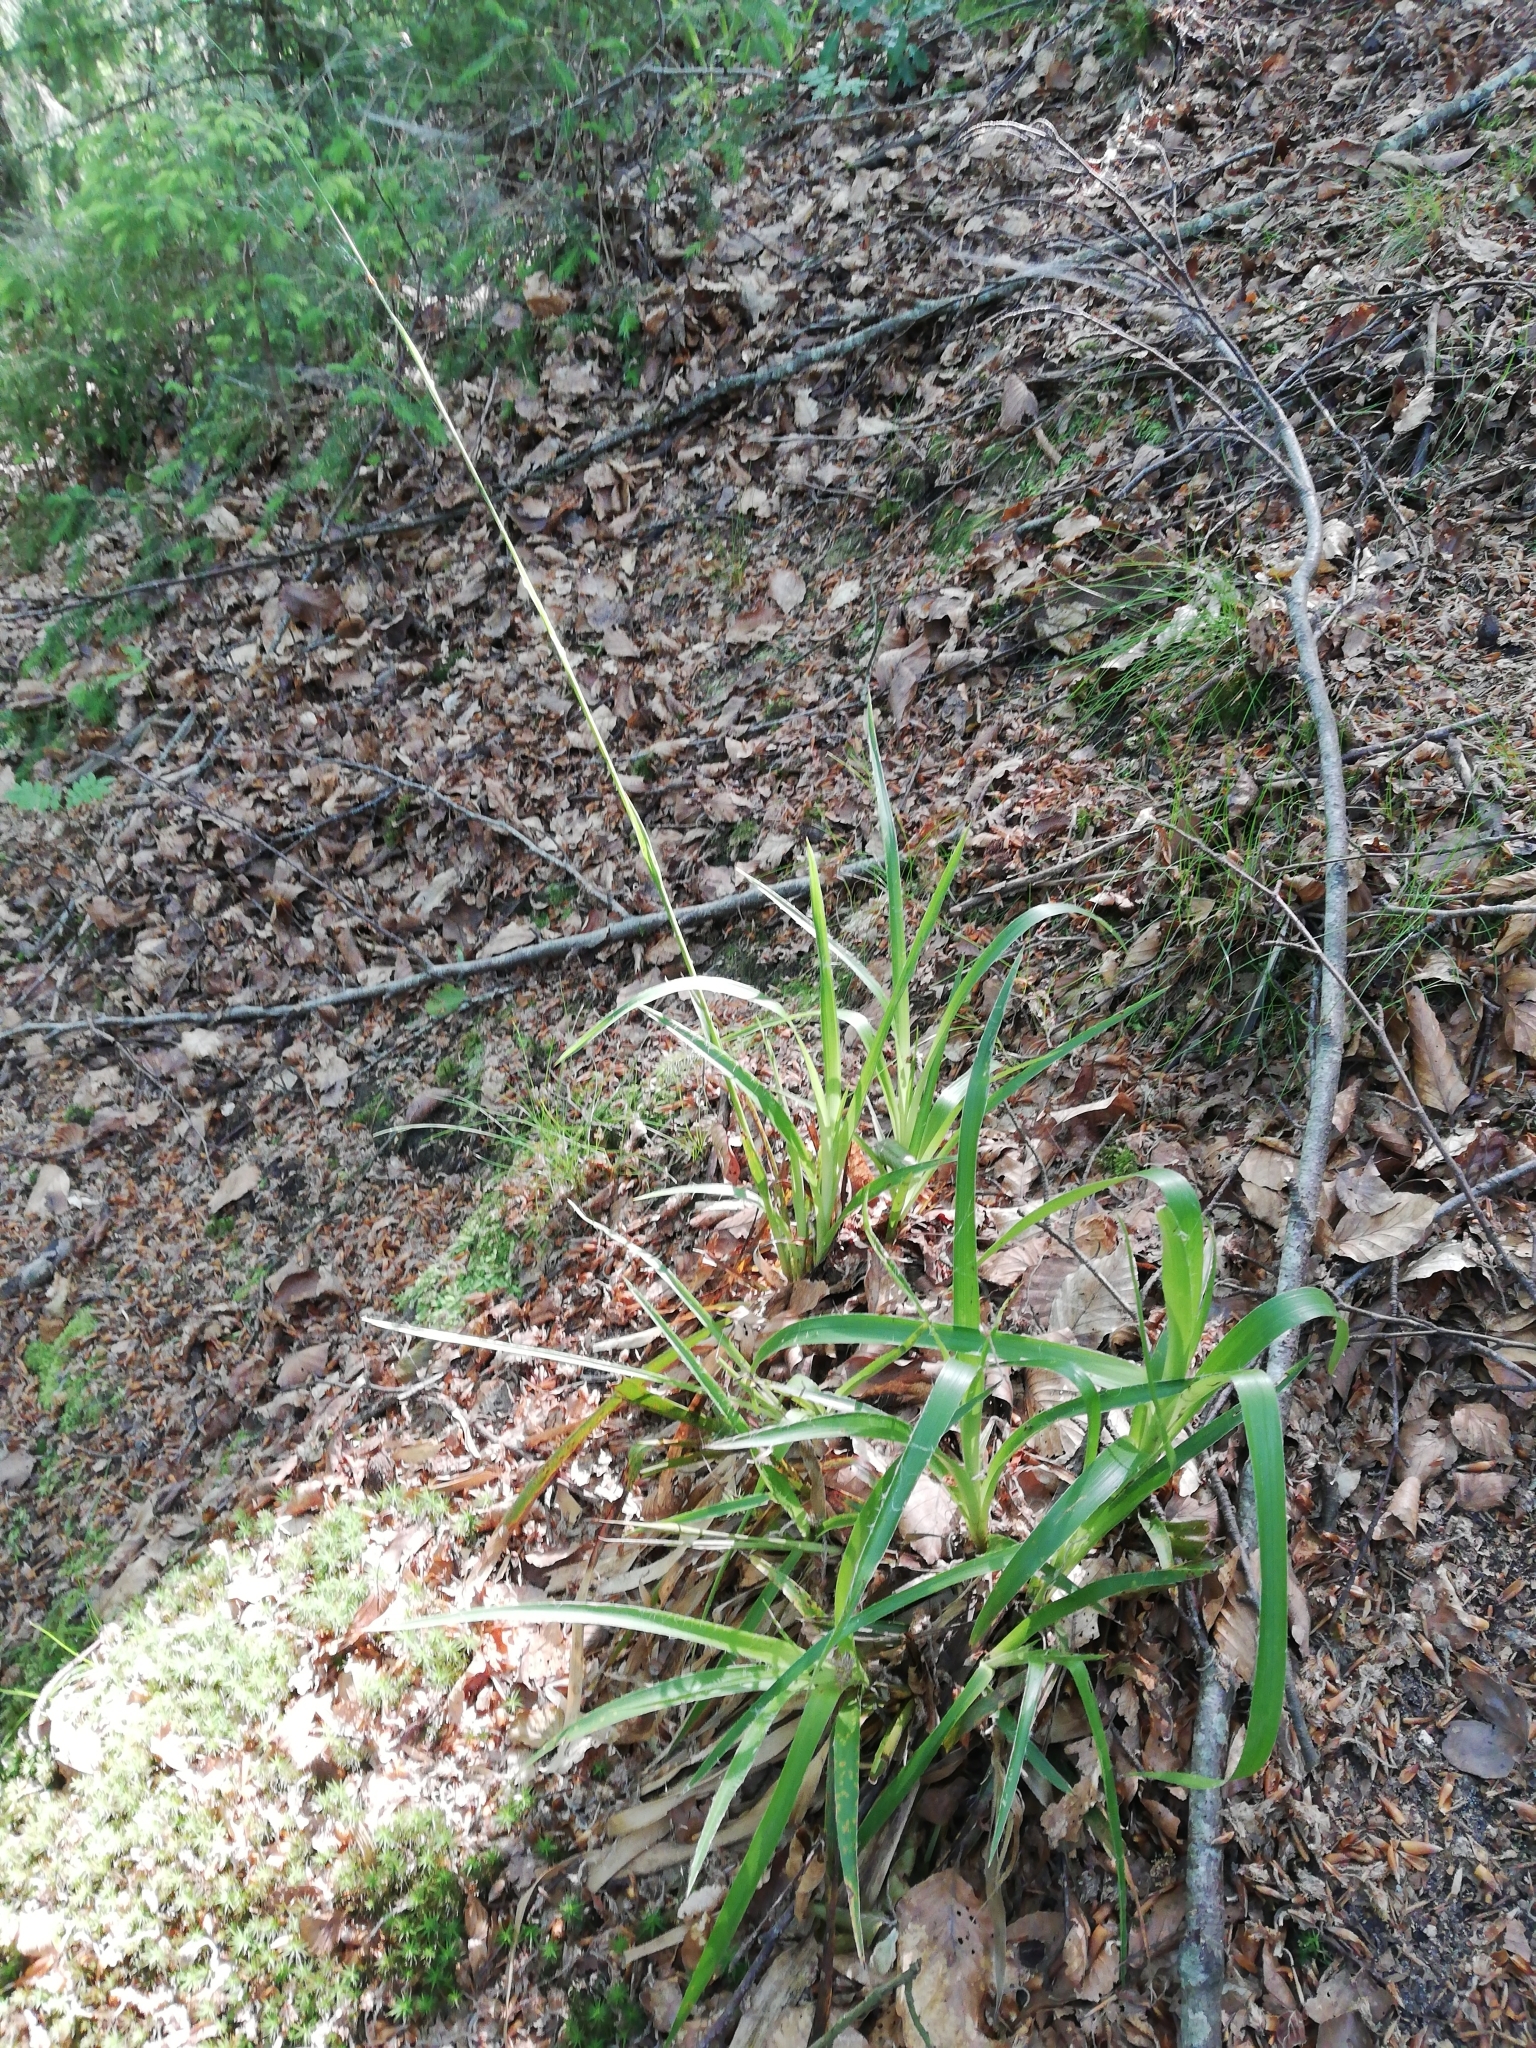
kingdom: Plantae
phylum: Tracheophyta
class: Liliopsida
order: Poales
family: Juncaceae
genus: Luzula
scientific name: Luzula sylvatica
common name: Great wood-rush
